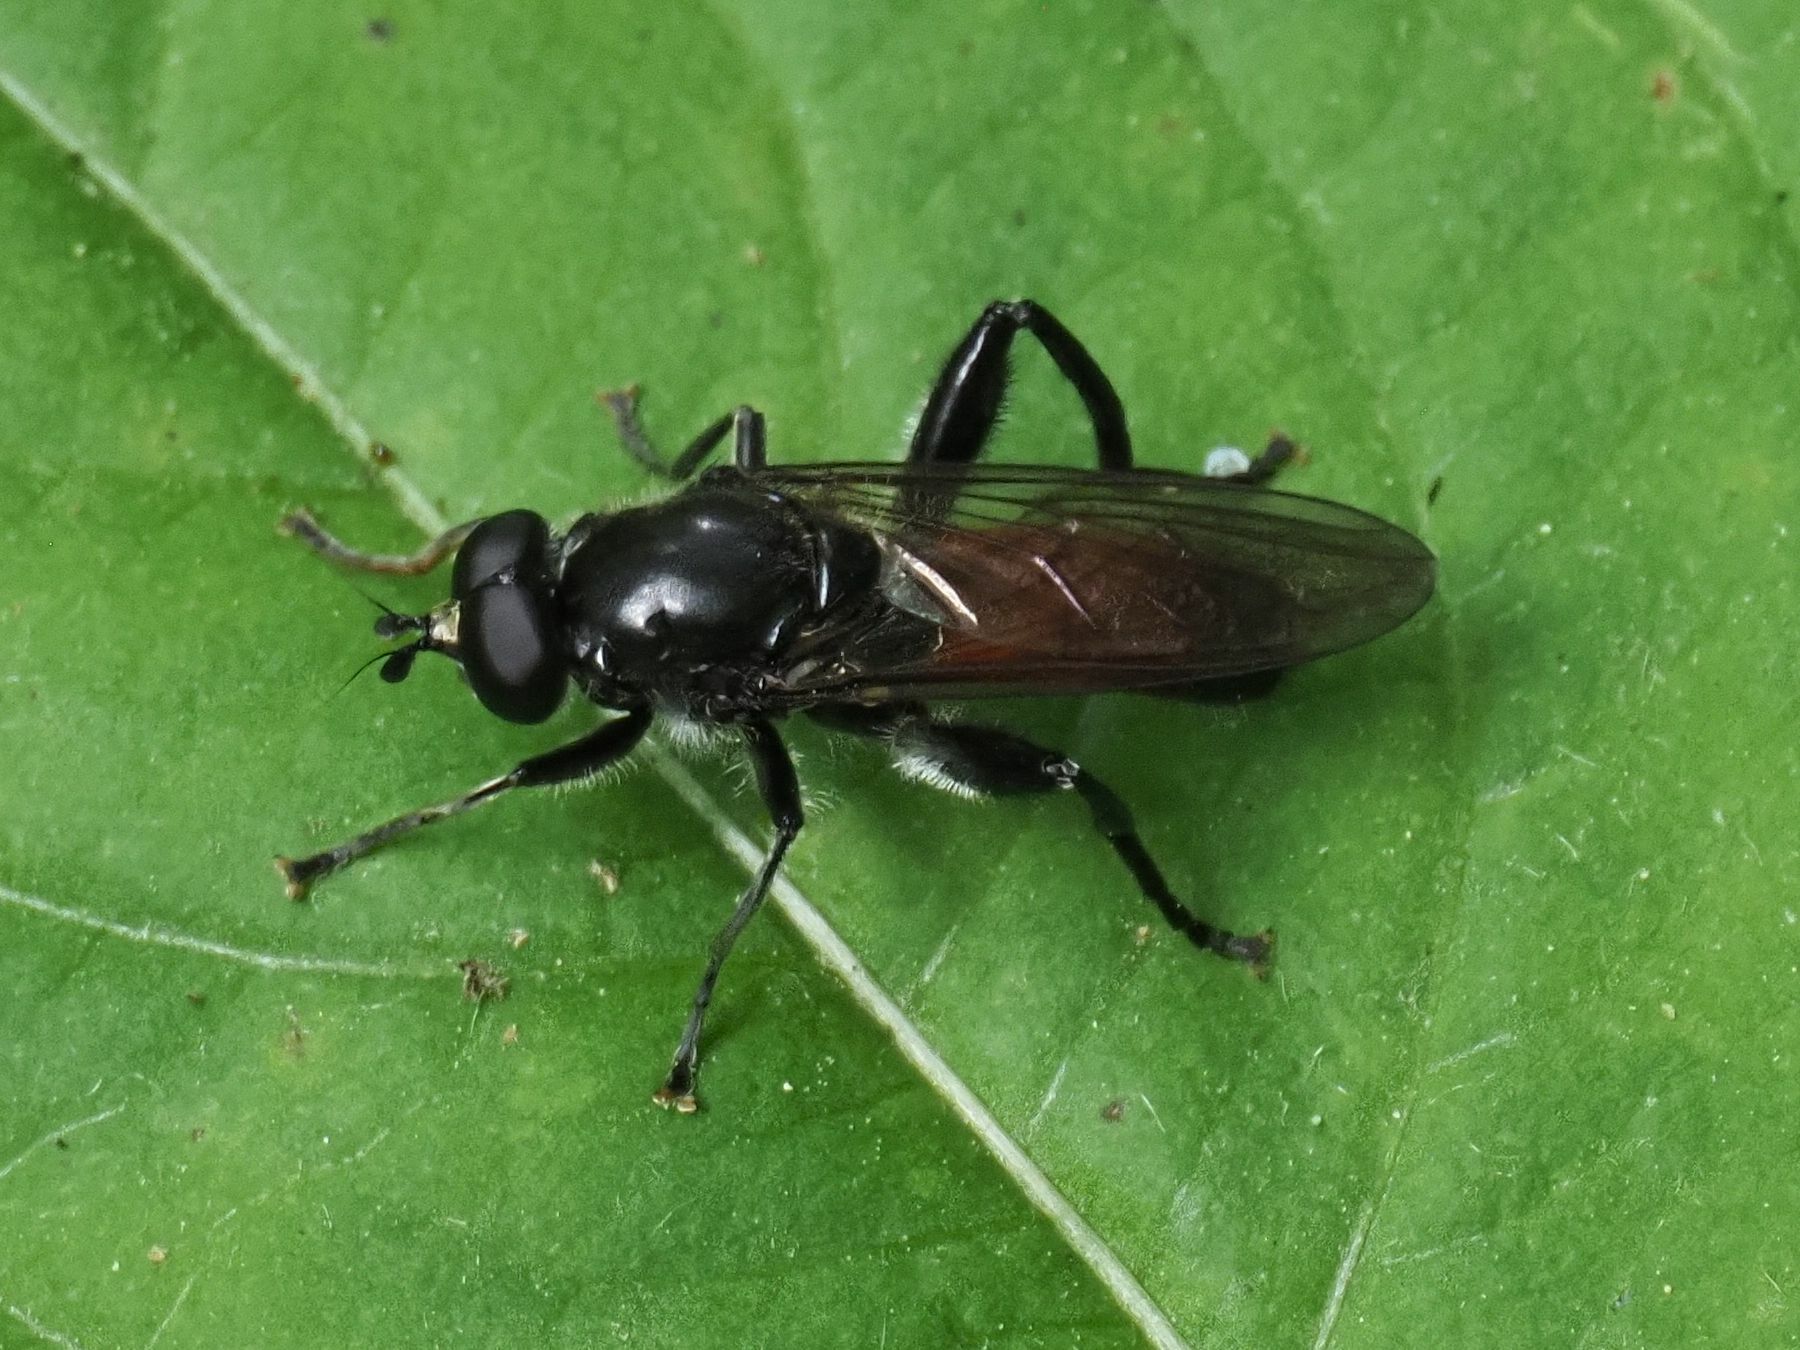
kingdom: Animalia
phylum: Arthropoda
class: Insecta
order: Diptera
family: Syrphidae
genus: Brachypalpoides
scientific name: Brachypalpoides lenta
